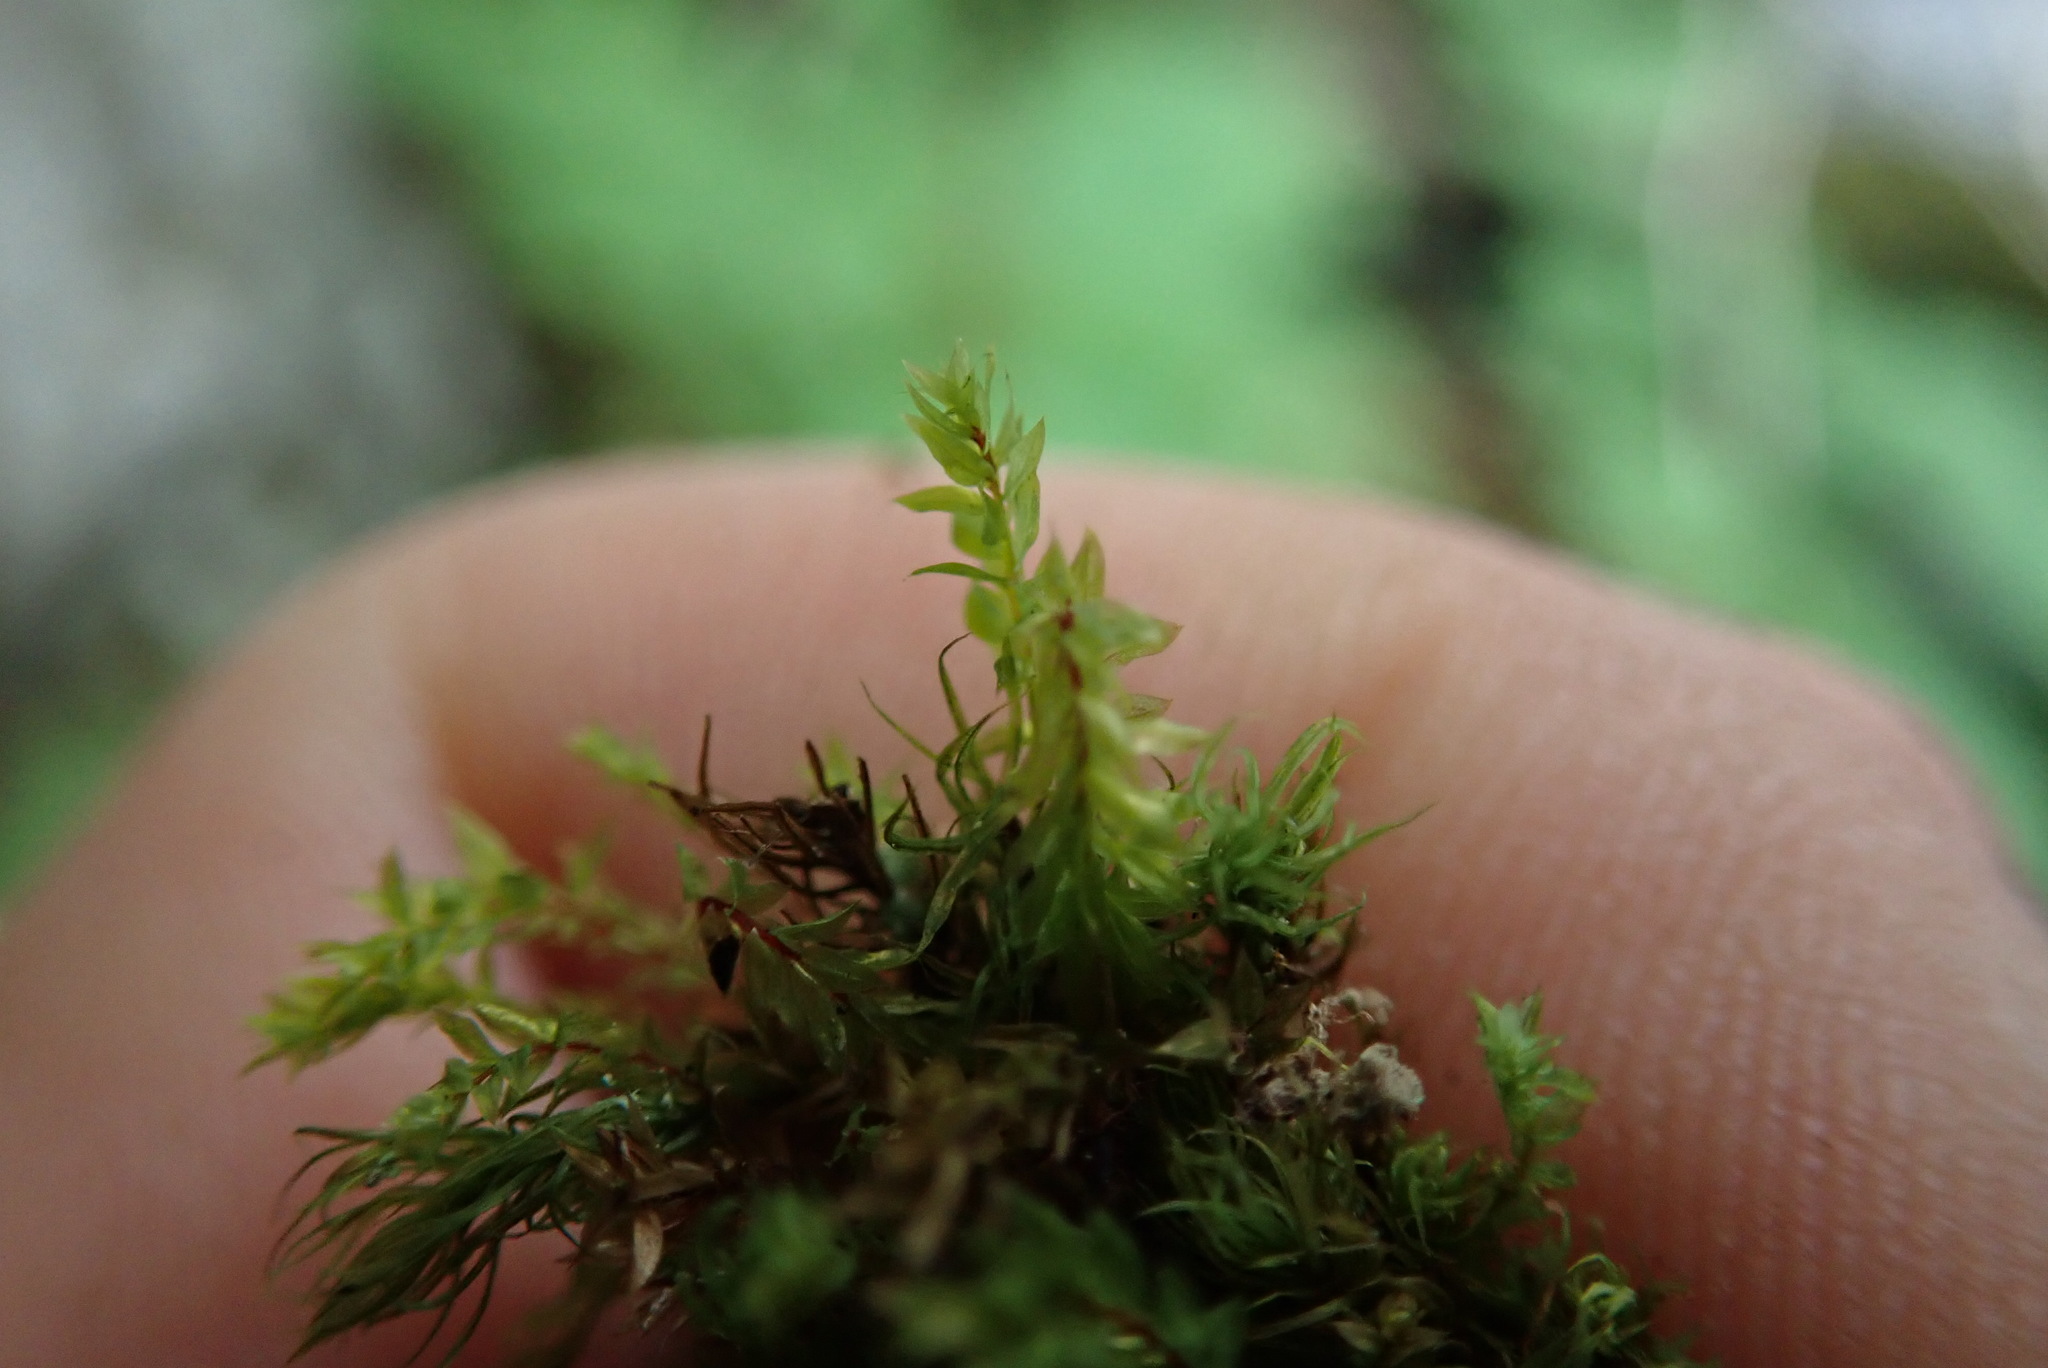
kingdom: Plantae
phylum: Bryophyta
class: Bryopsida
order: Bryales
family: Mniaceae
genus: Pohlia
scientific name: Pohlia cruda
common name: Opal nodding moss
